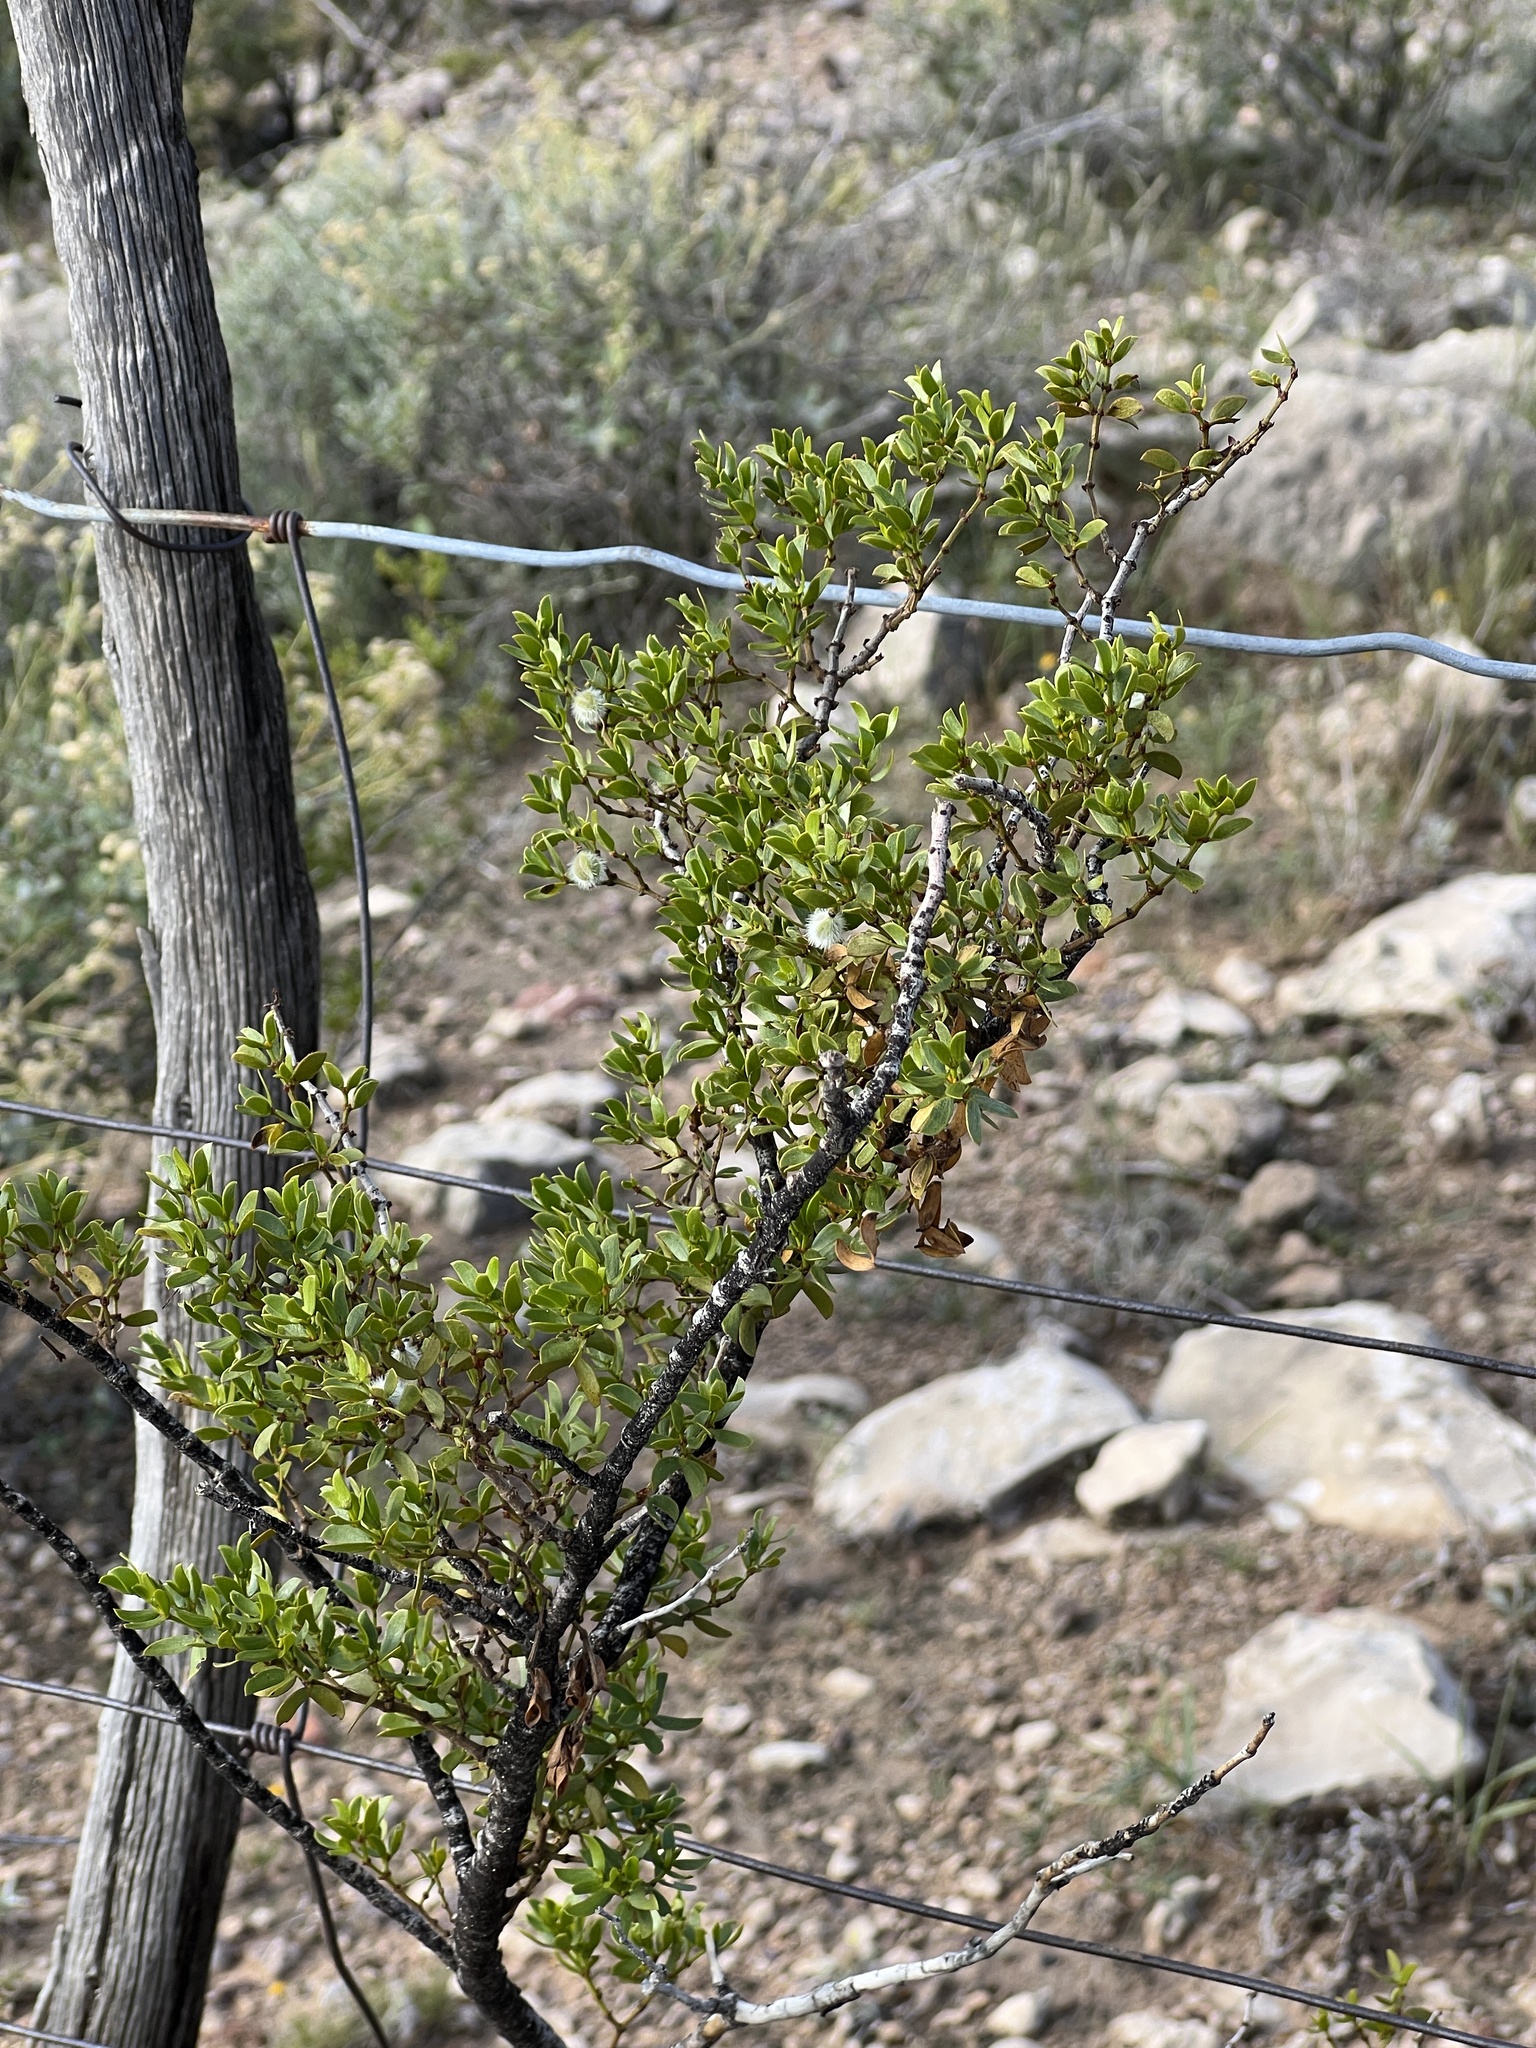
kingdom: Plantae
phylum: Tracheophyta
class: Magnoliopsida
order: Zygophyllales
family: Zygophyllaceae
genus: Larrea
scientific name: Larrea tridentata
